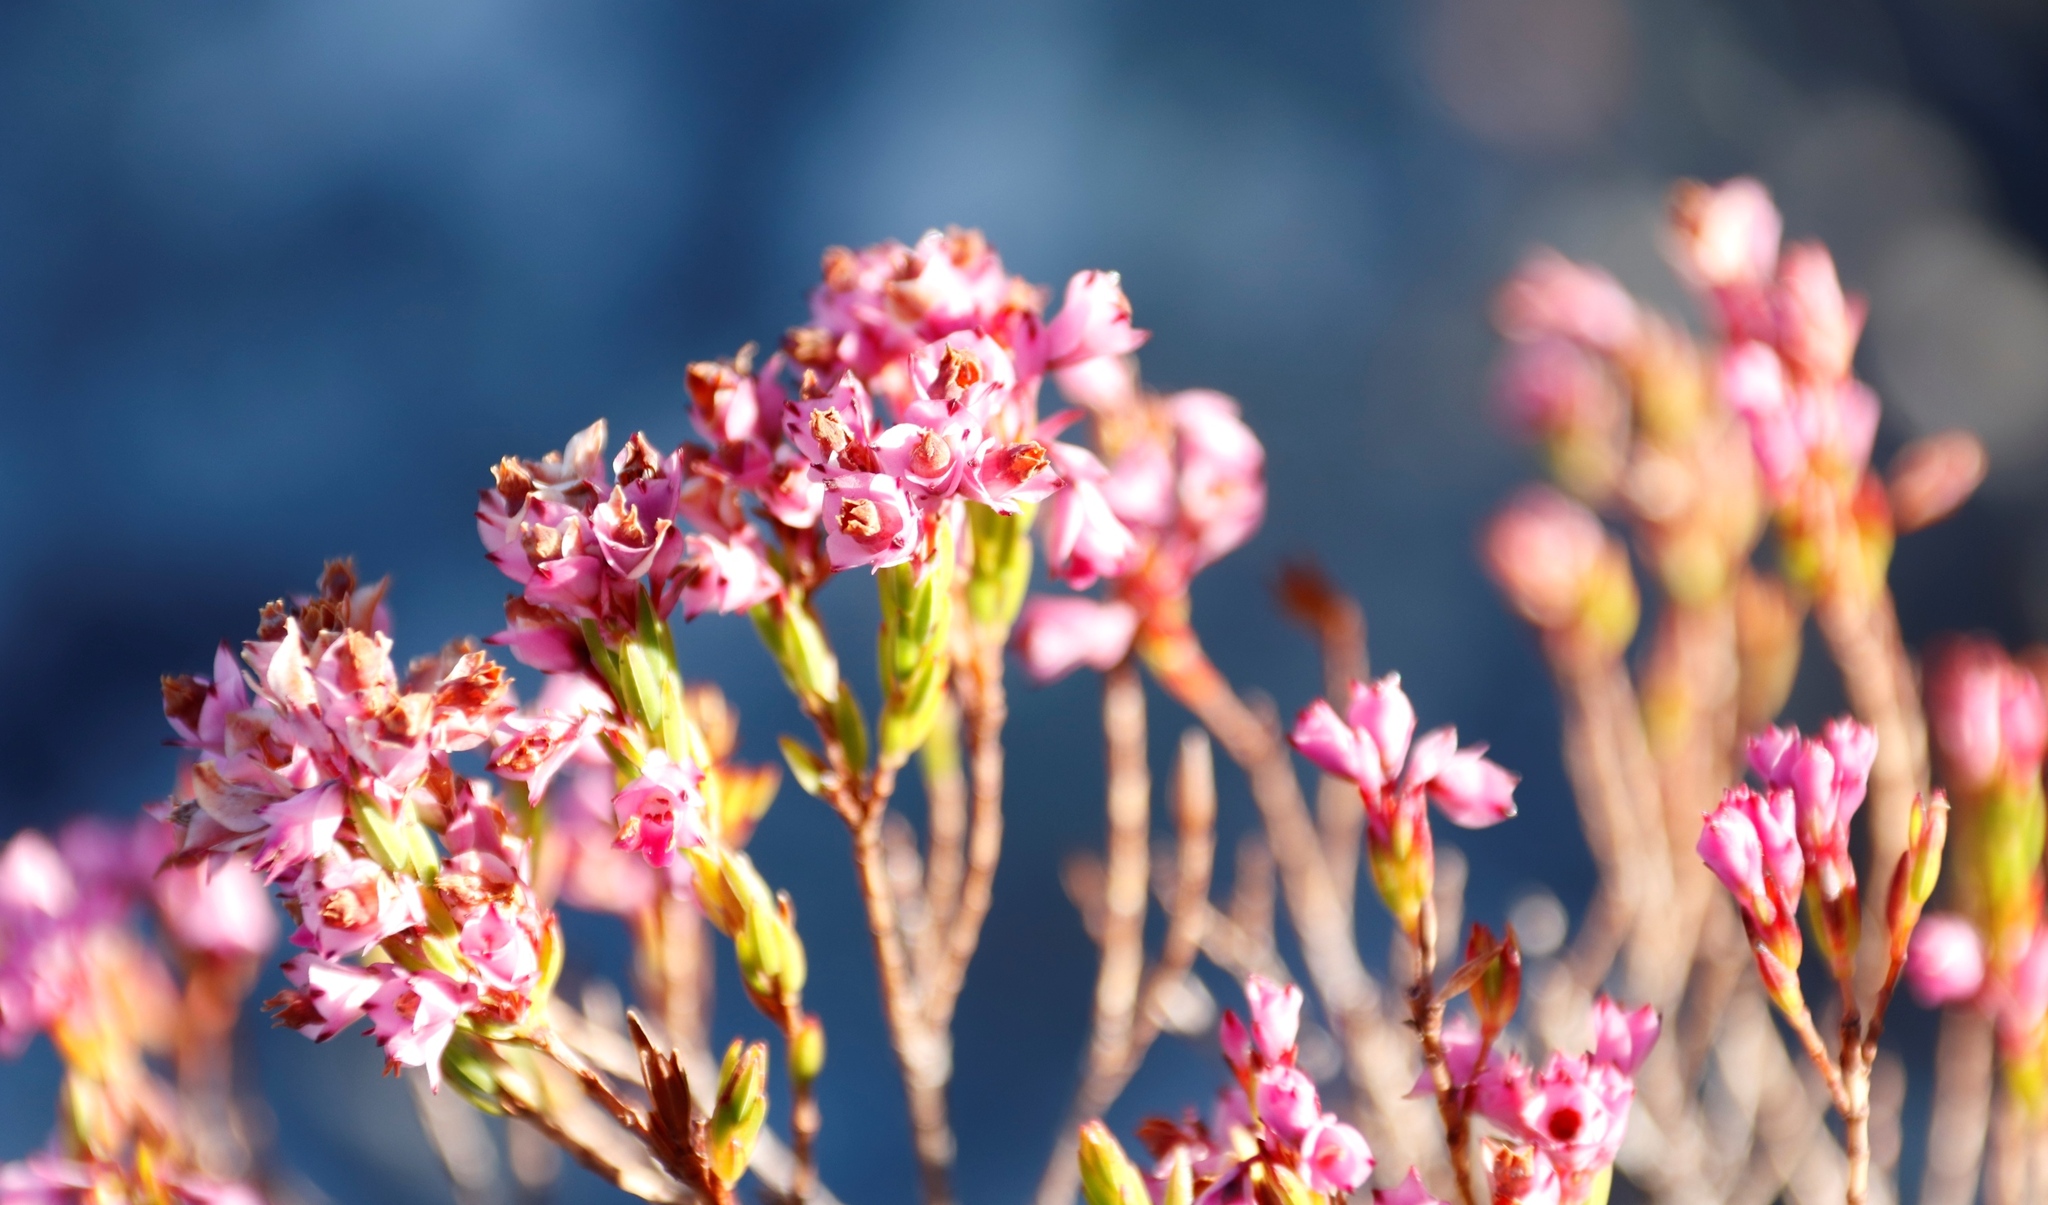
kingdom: Plantae
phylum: Tracheophyta
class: Magnoliopsida
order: Ericales
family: Ericaceae
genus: Erica
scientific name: Erica corifolia
